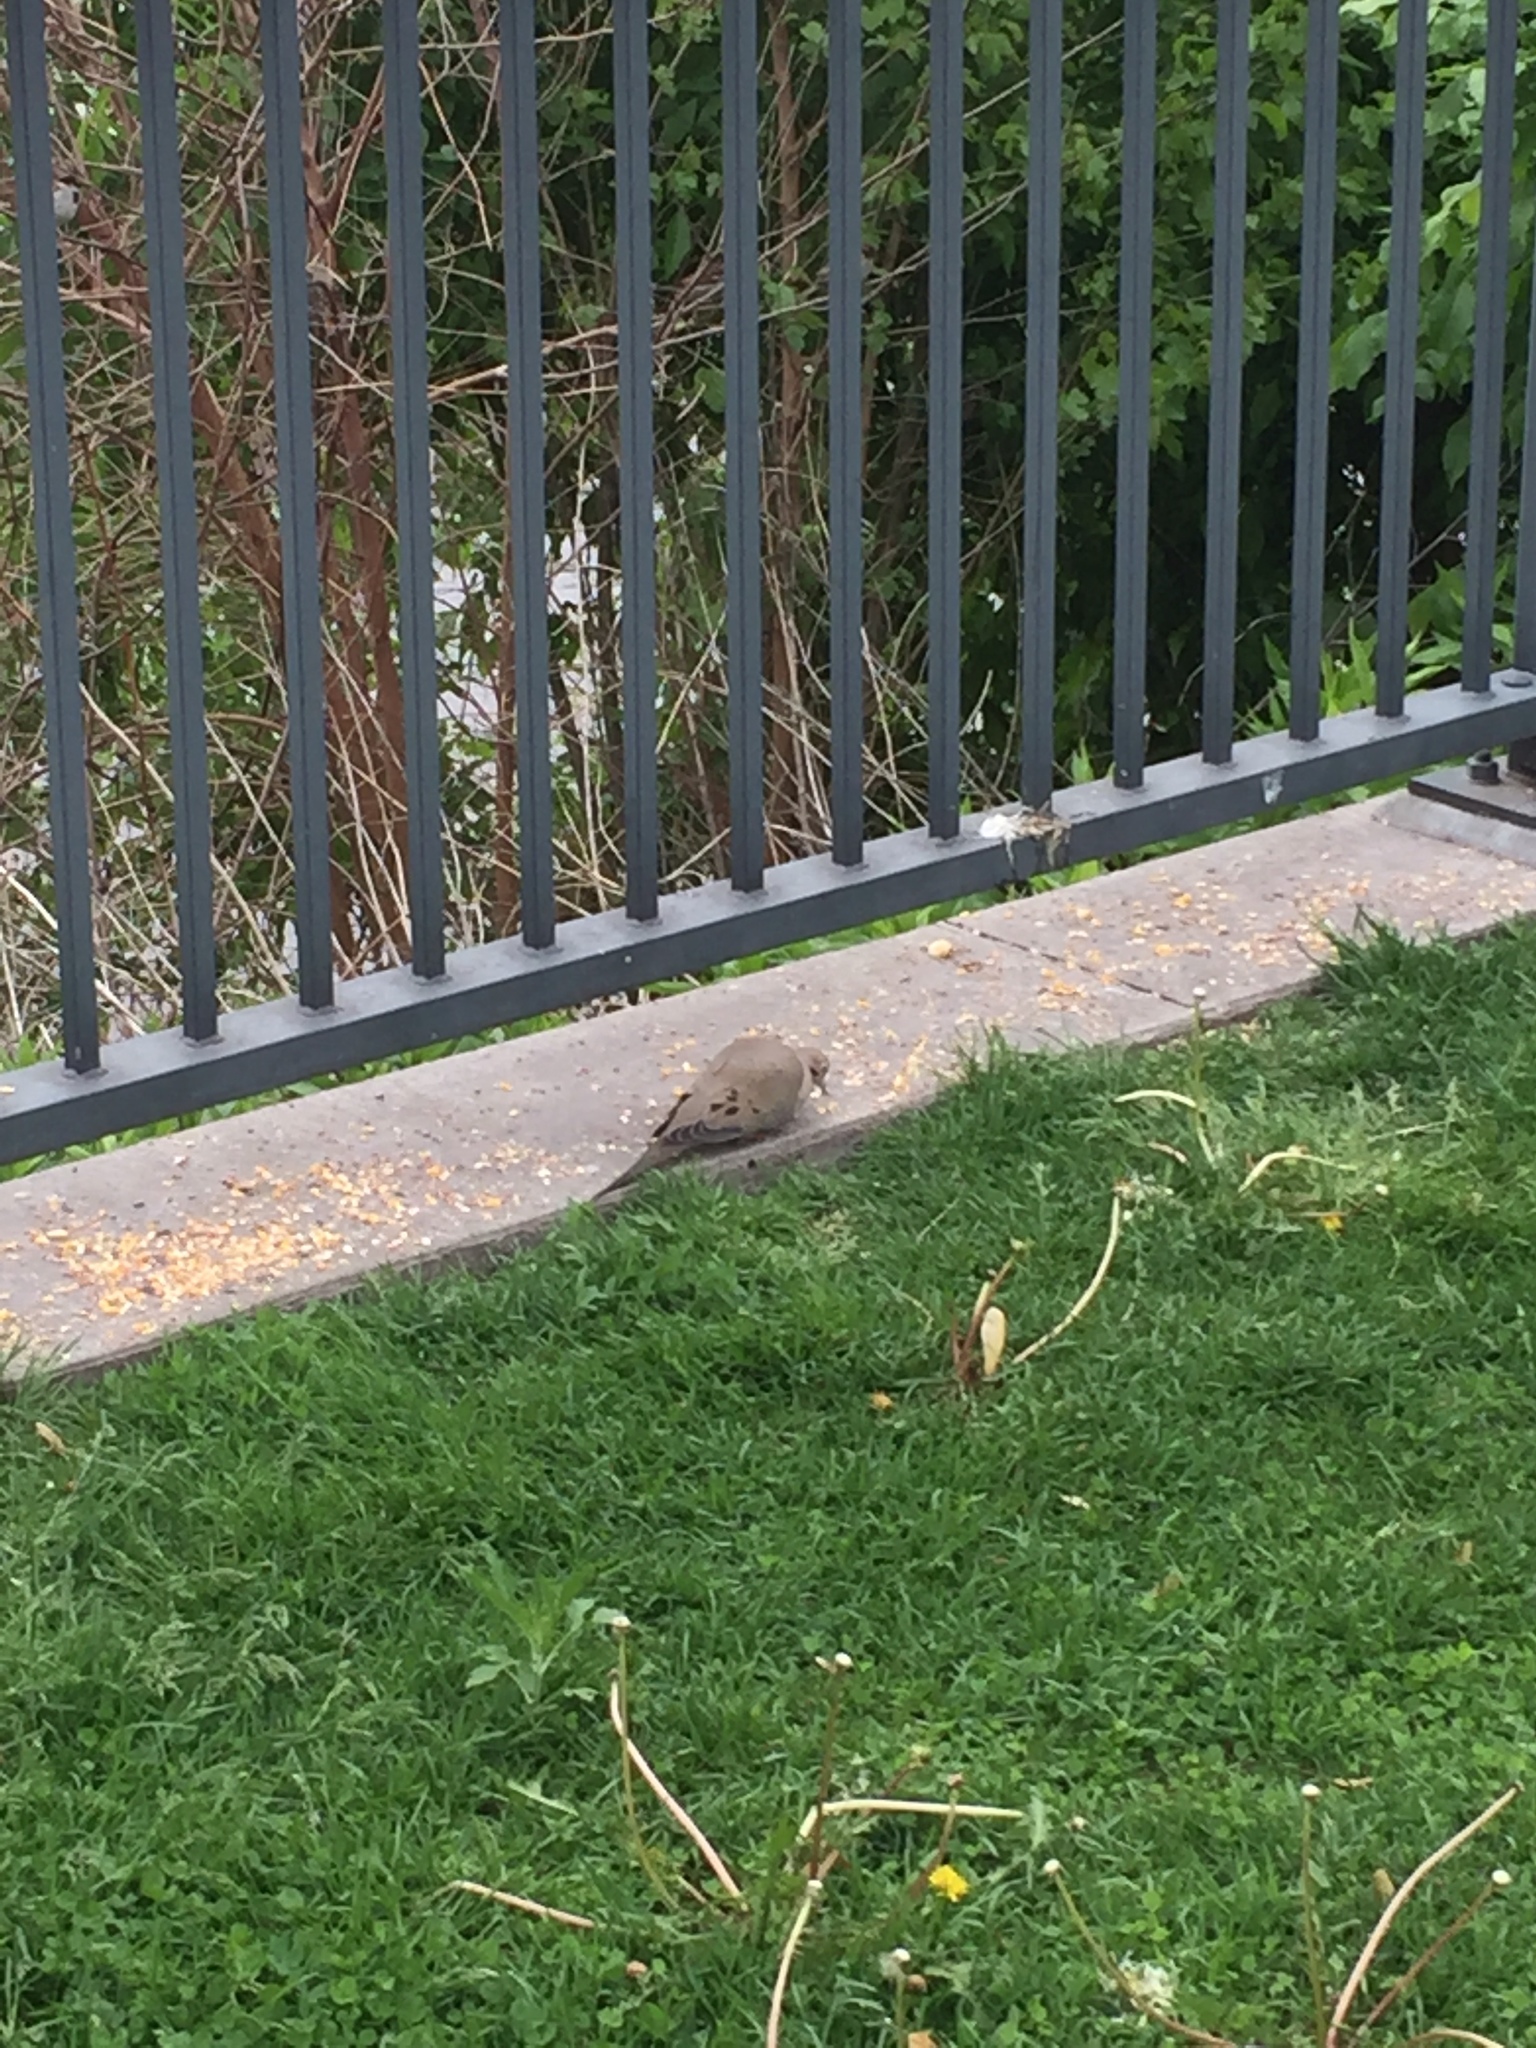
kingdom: Animalia
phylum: Chordata
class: Aves
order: Columbiformes
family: Columbidae
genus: Zenaida
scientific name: Zenaida macroura
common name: Mourning dove
